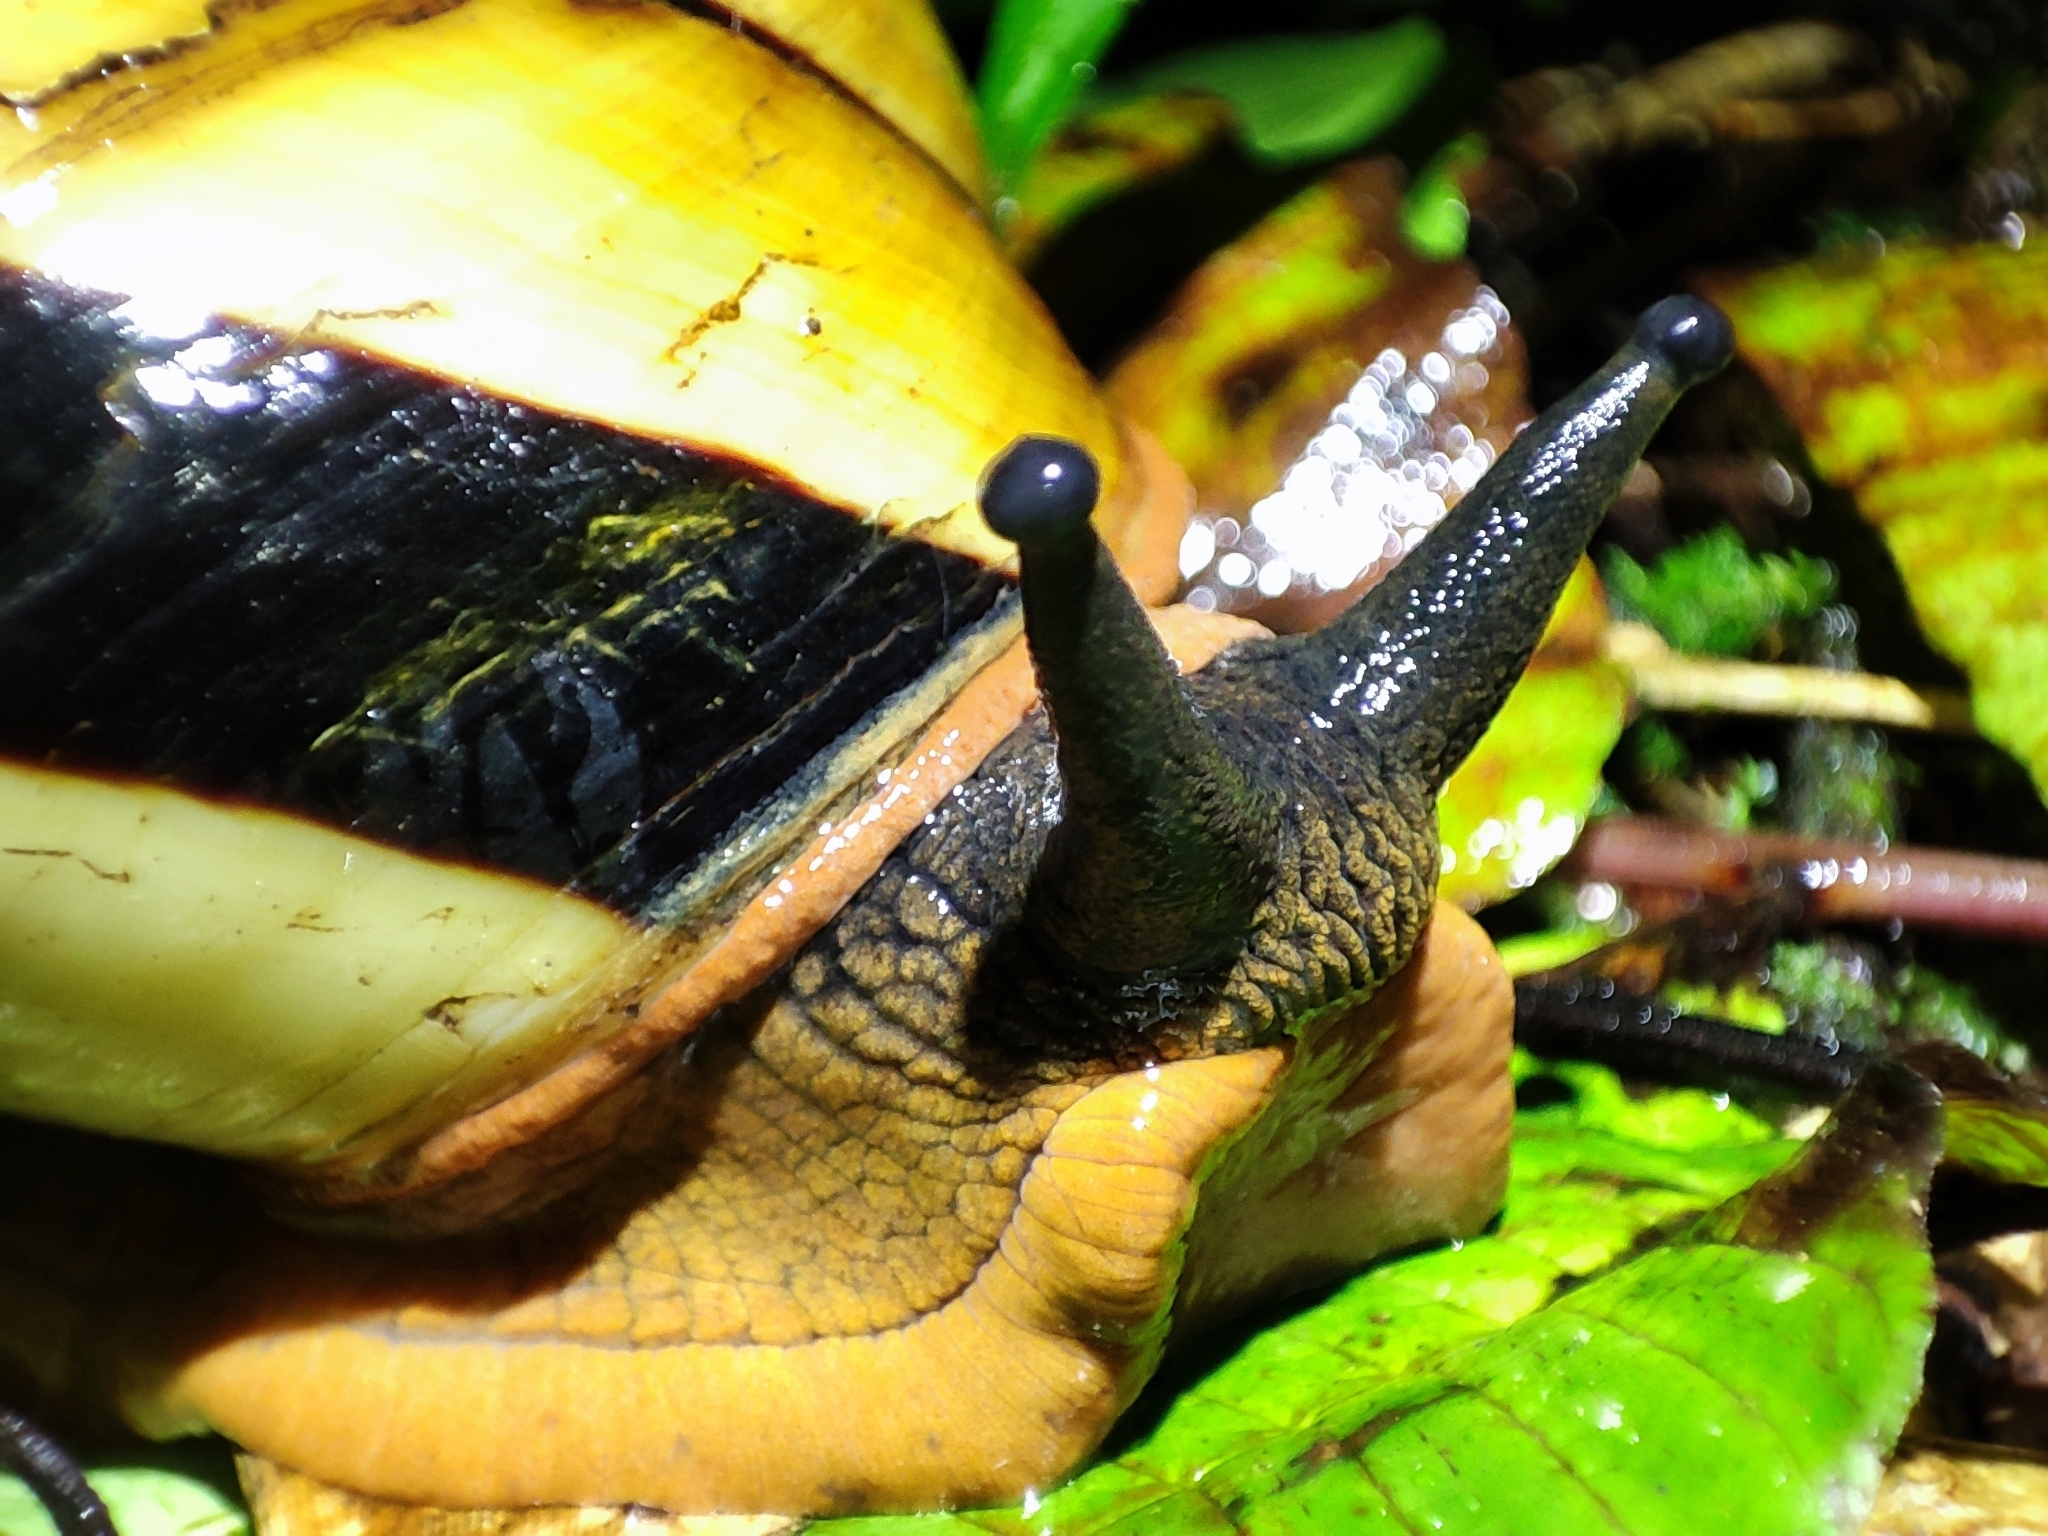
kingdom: Animalia
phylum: Mollusca
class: Gastropoda
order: Stylommatophora
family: Dyakiidae
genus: Bertia
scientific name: Bertia cambojiensis
